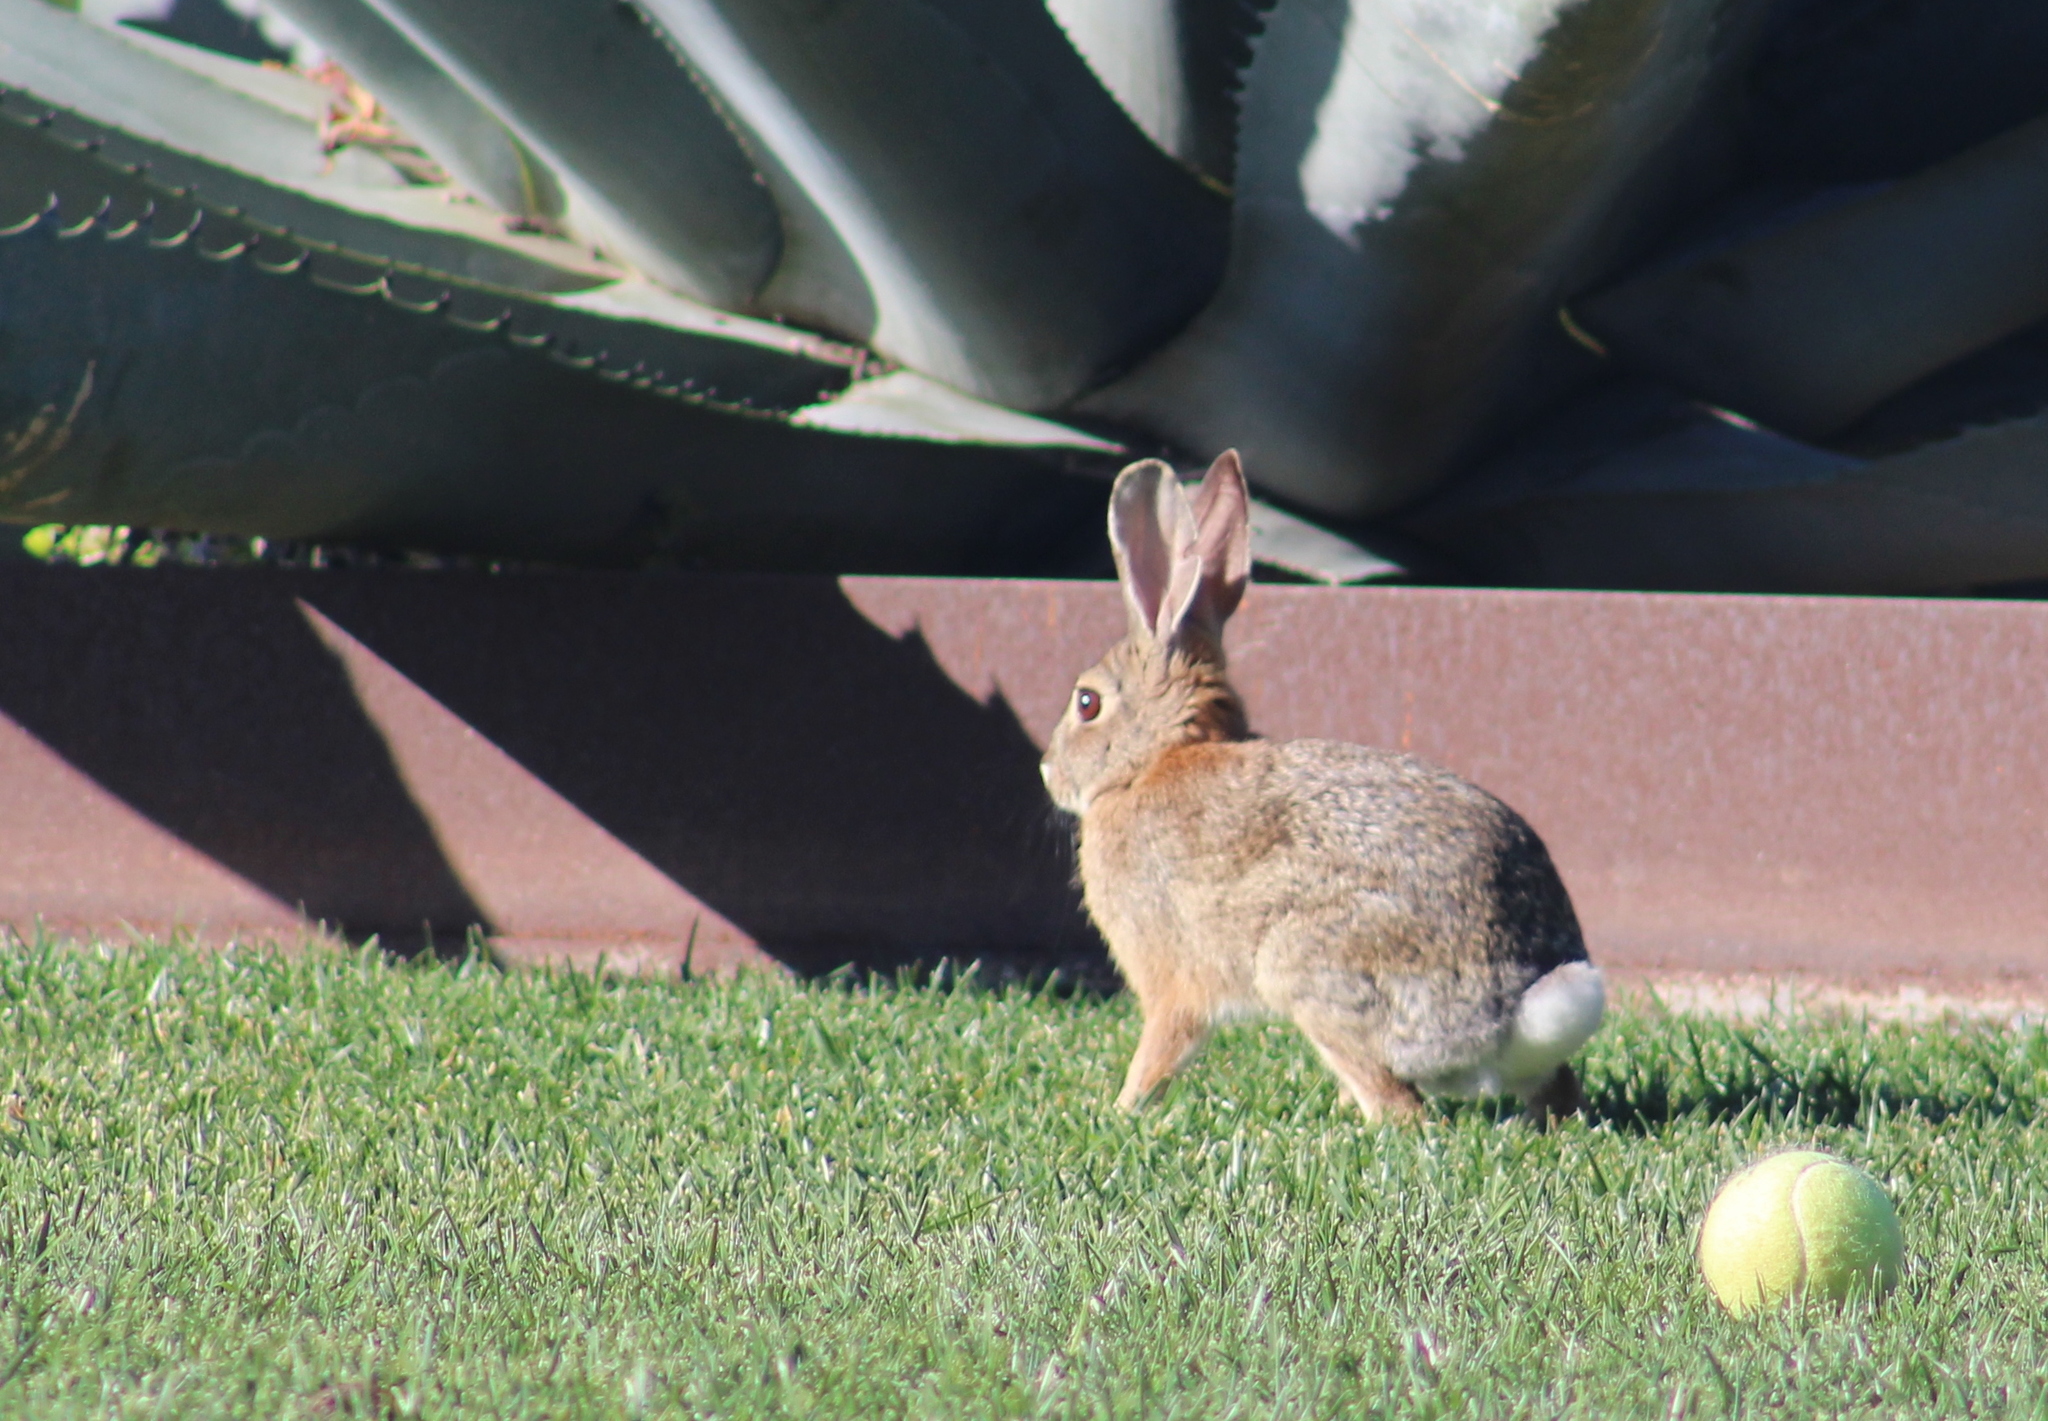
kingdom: Animalia
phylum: Chordata
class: Mammalia
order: Lagomorpha
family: Leporidae
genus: Sylvilagus
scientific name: Sylvilagus audubonii
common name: Desert cottontail
